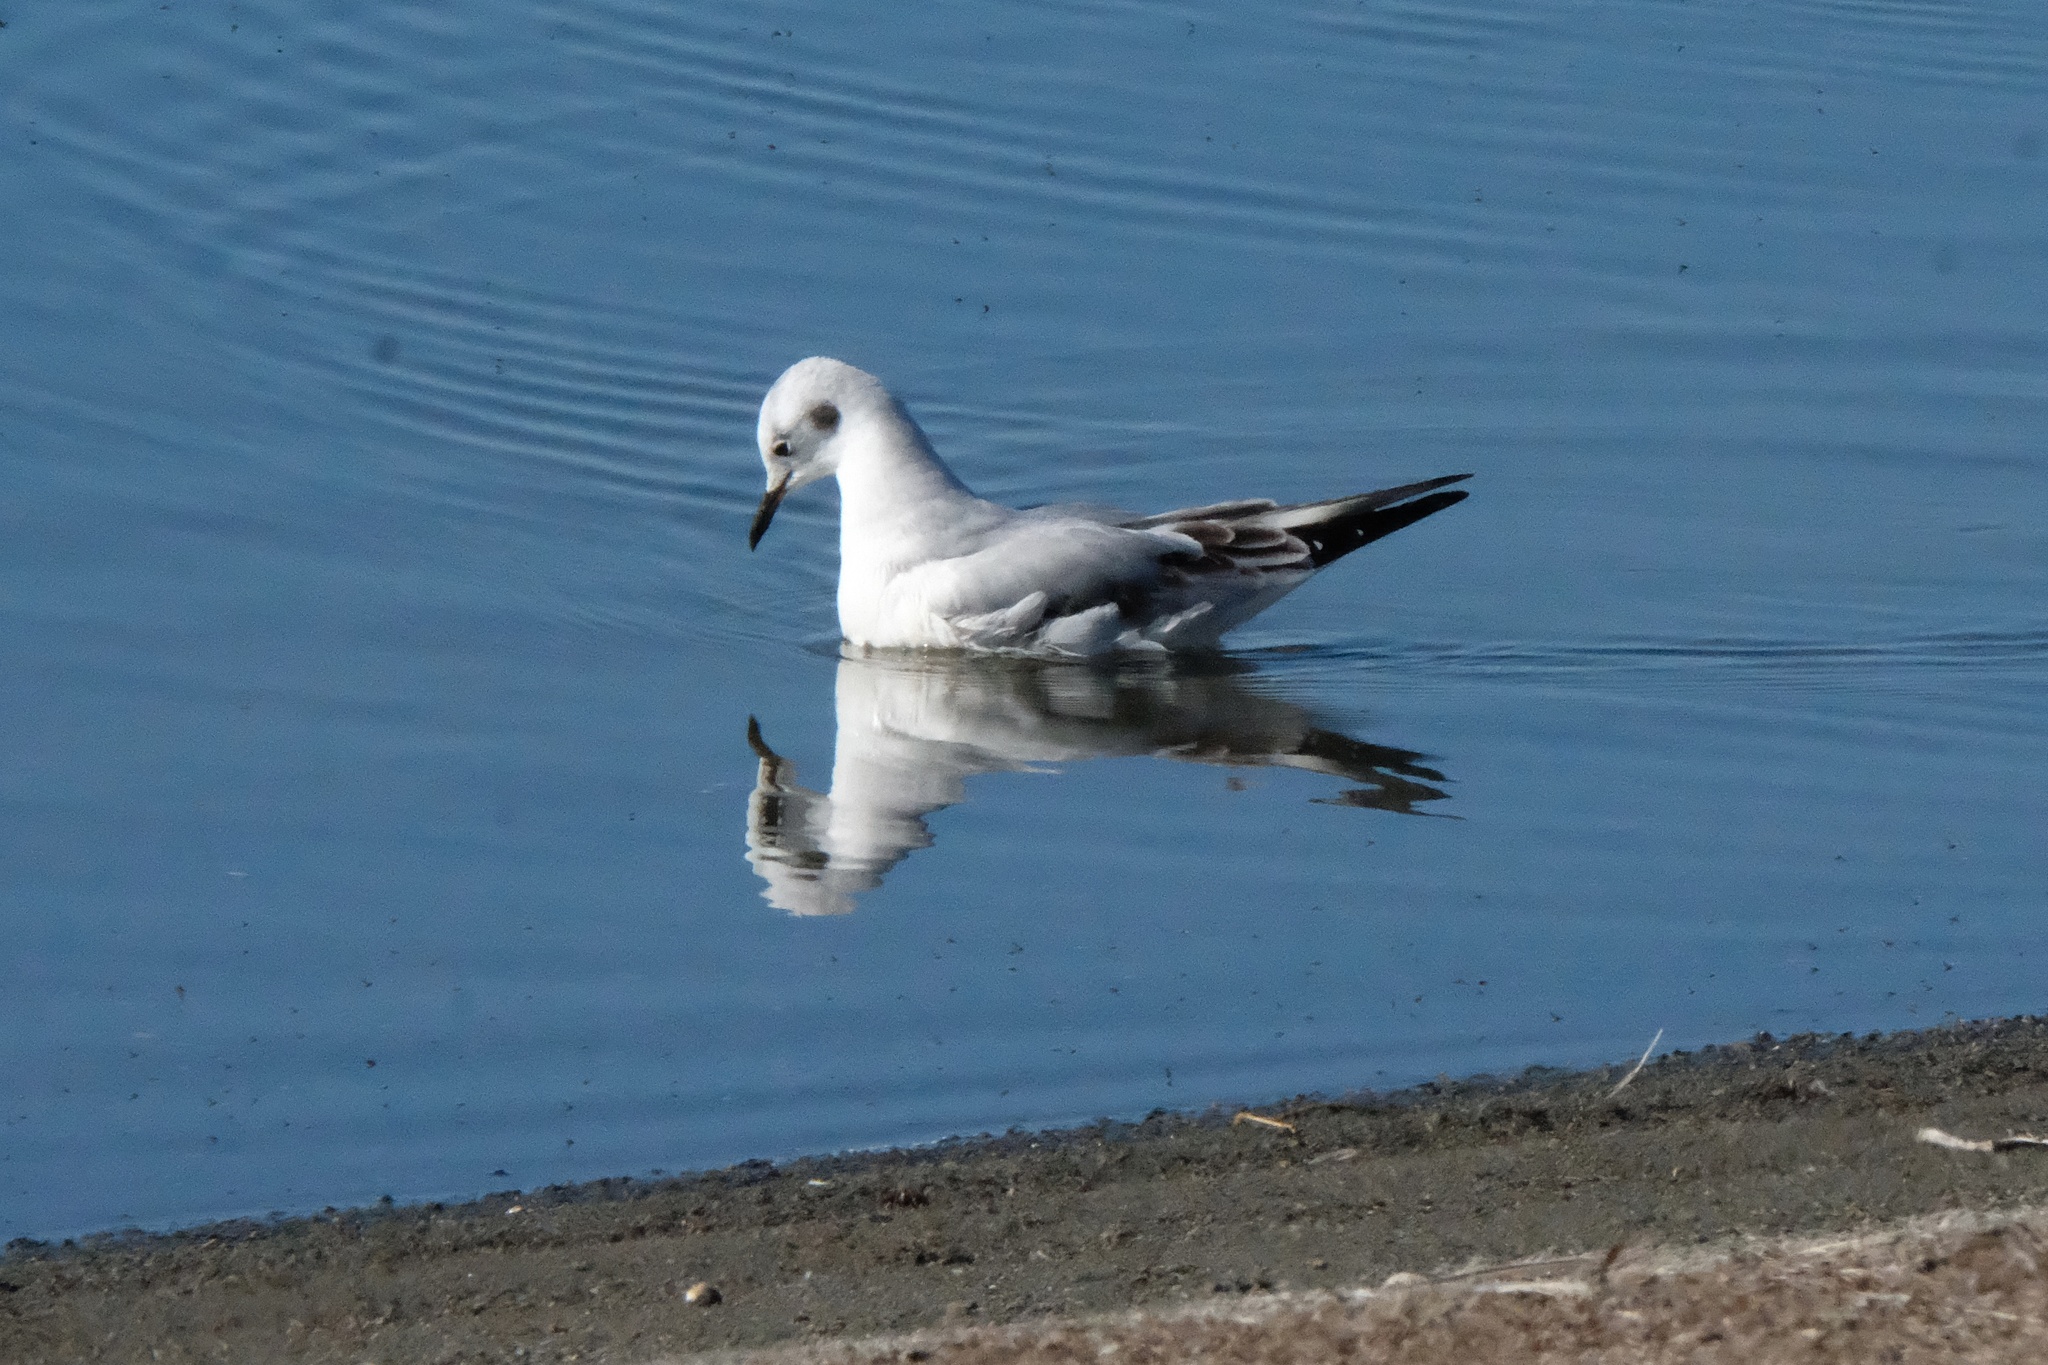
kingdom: Animalia
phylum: Chordata
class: Aves
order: Charadriiformes
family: Laridae
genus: Chroicocephalus
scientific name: Chroicocephalus philadelphia
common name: Bonaparte's gull
